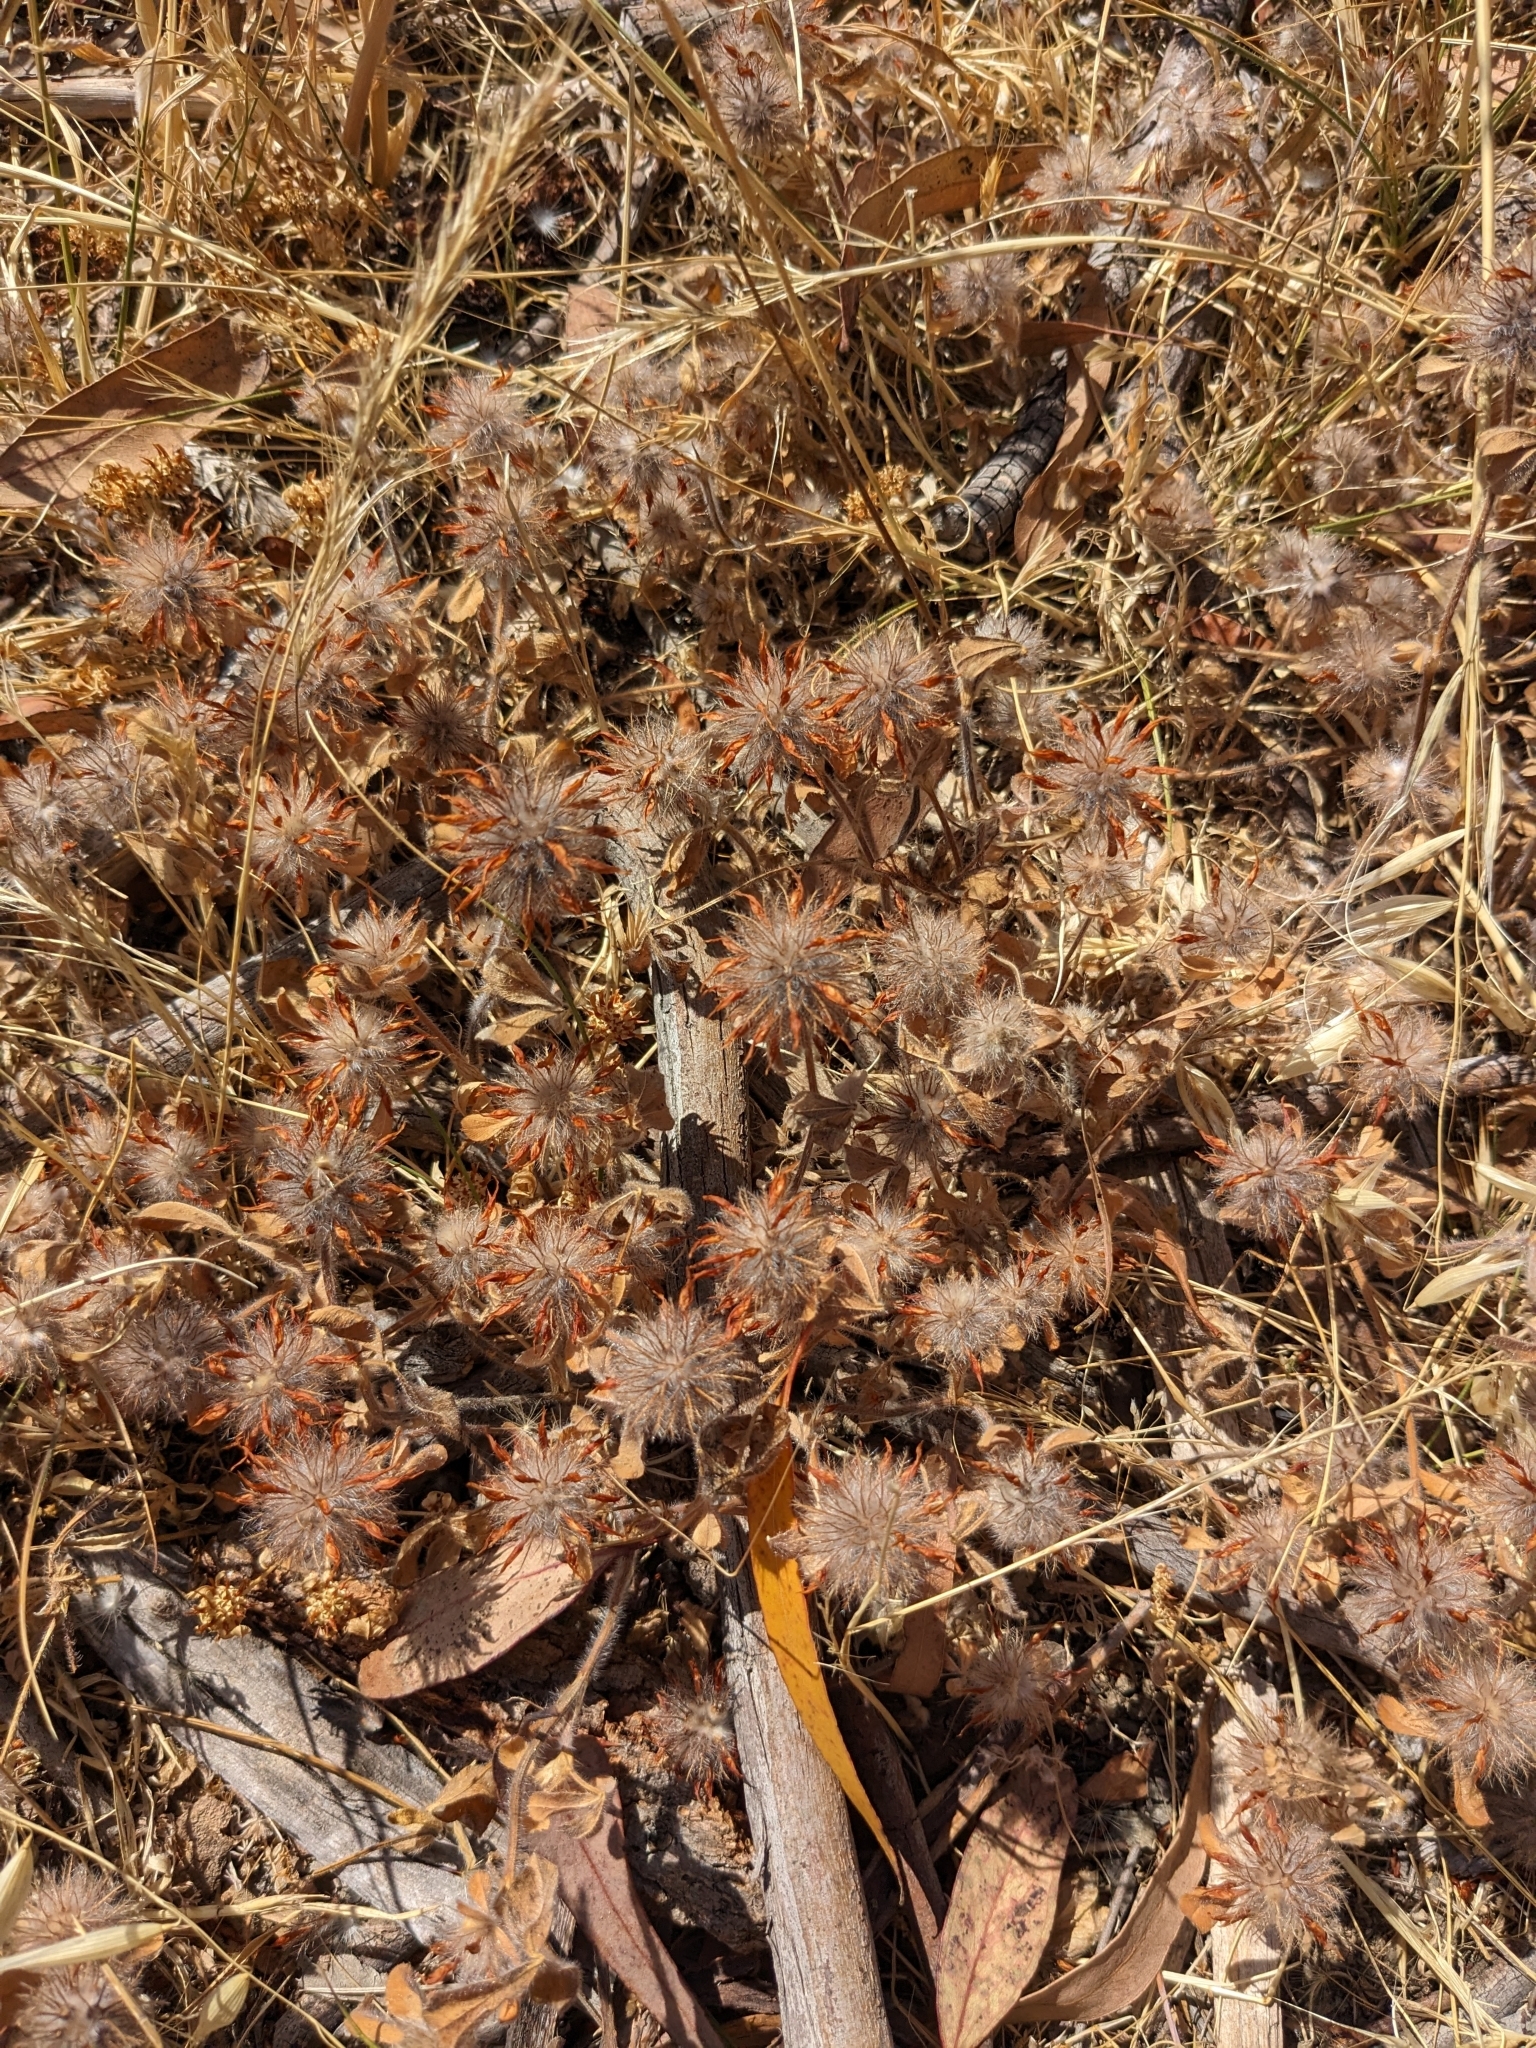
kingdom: Plantae
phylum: Tracheophyta
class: Magnoliopsida
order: Fabales
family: Fabaceae
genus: Trifolium
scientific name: Trifolium hirtum
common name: Rose clover
